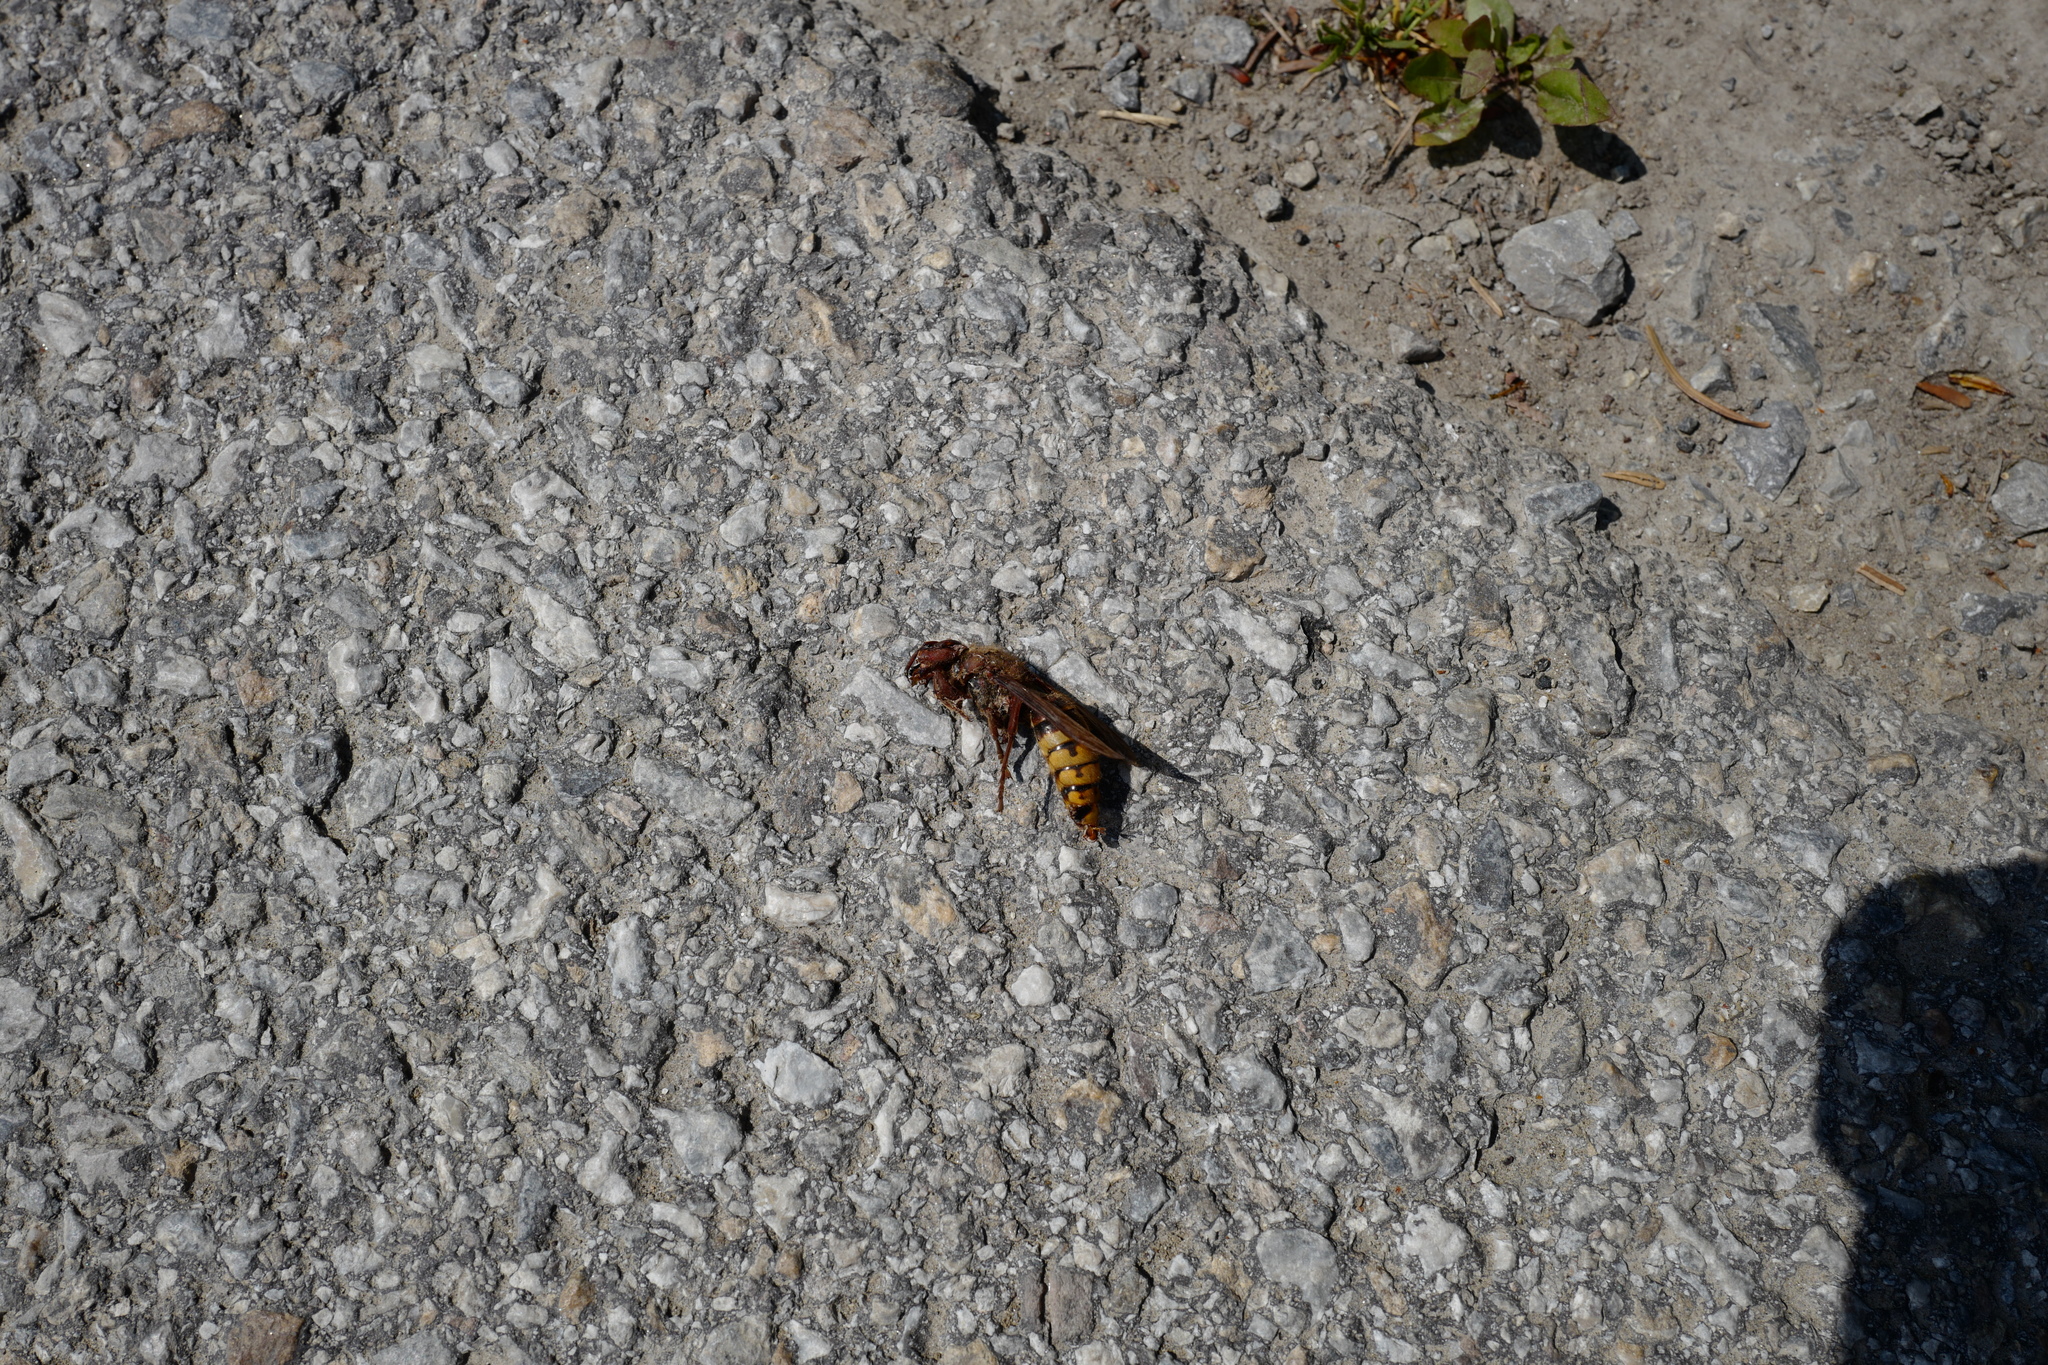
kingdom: Animalia
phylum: Arthropoda
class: Insecta
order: Hymenoptera
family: Vespidae
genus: Vespa
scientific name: Vespa crabro
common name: Hornet
